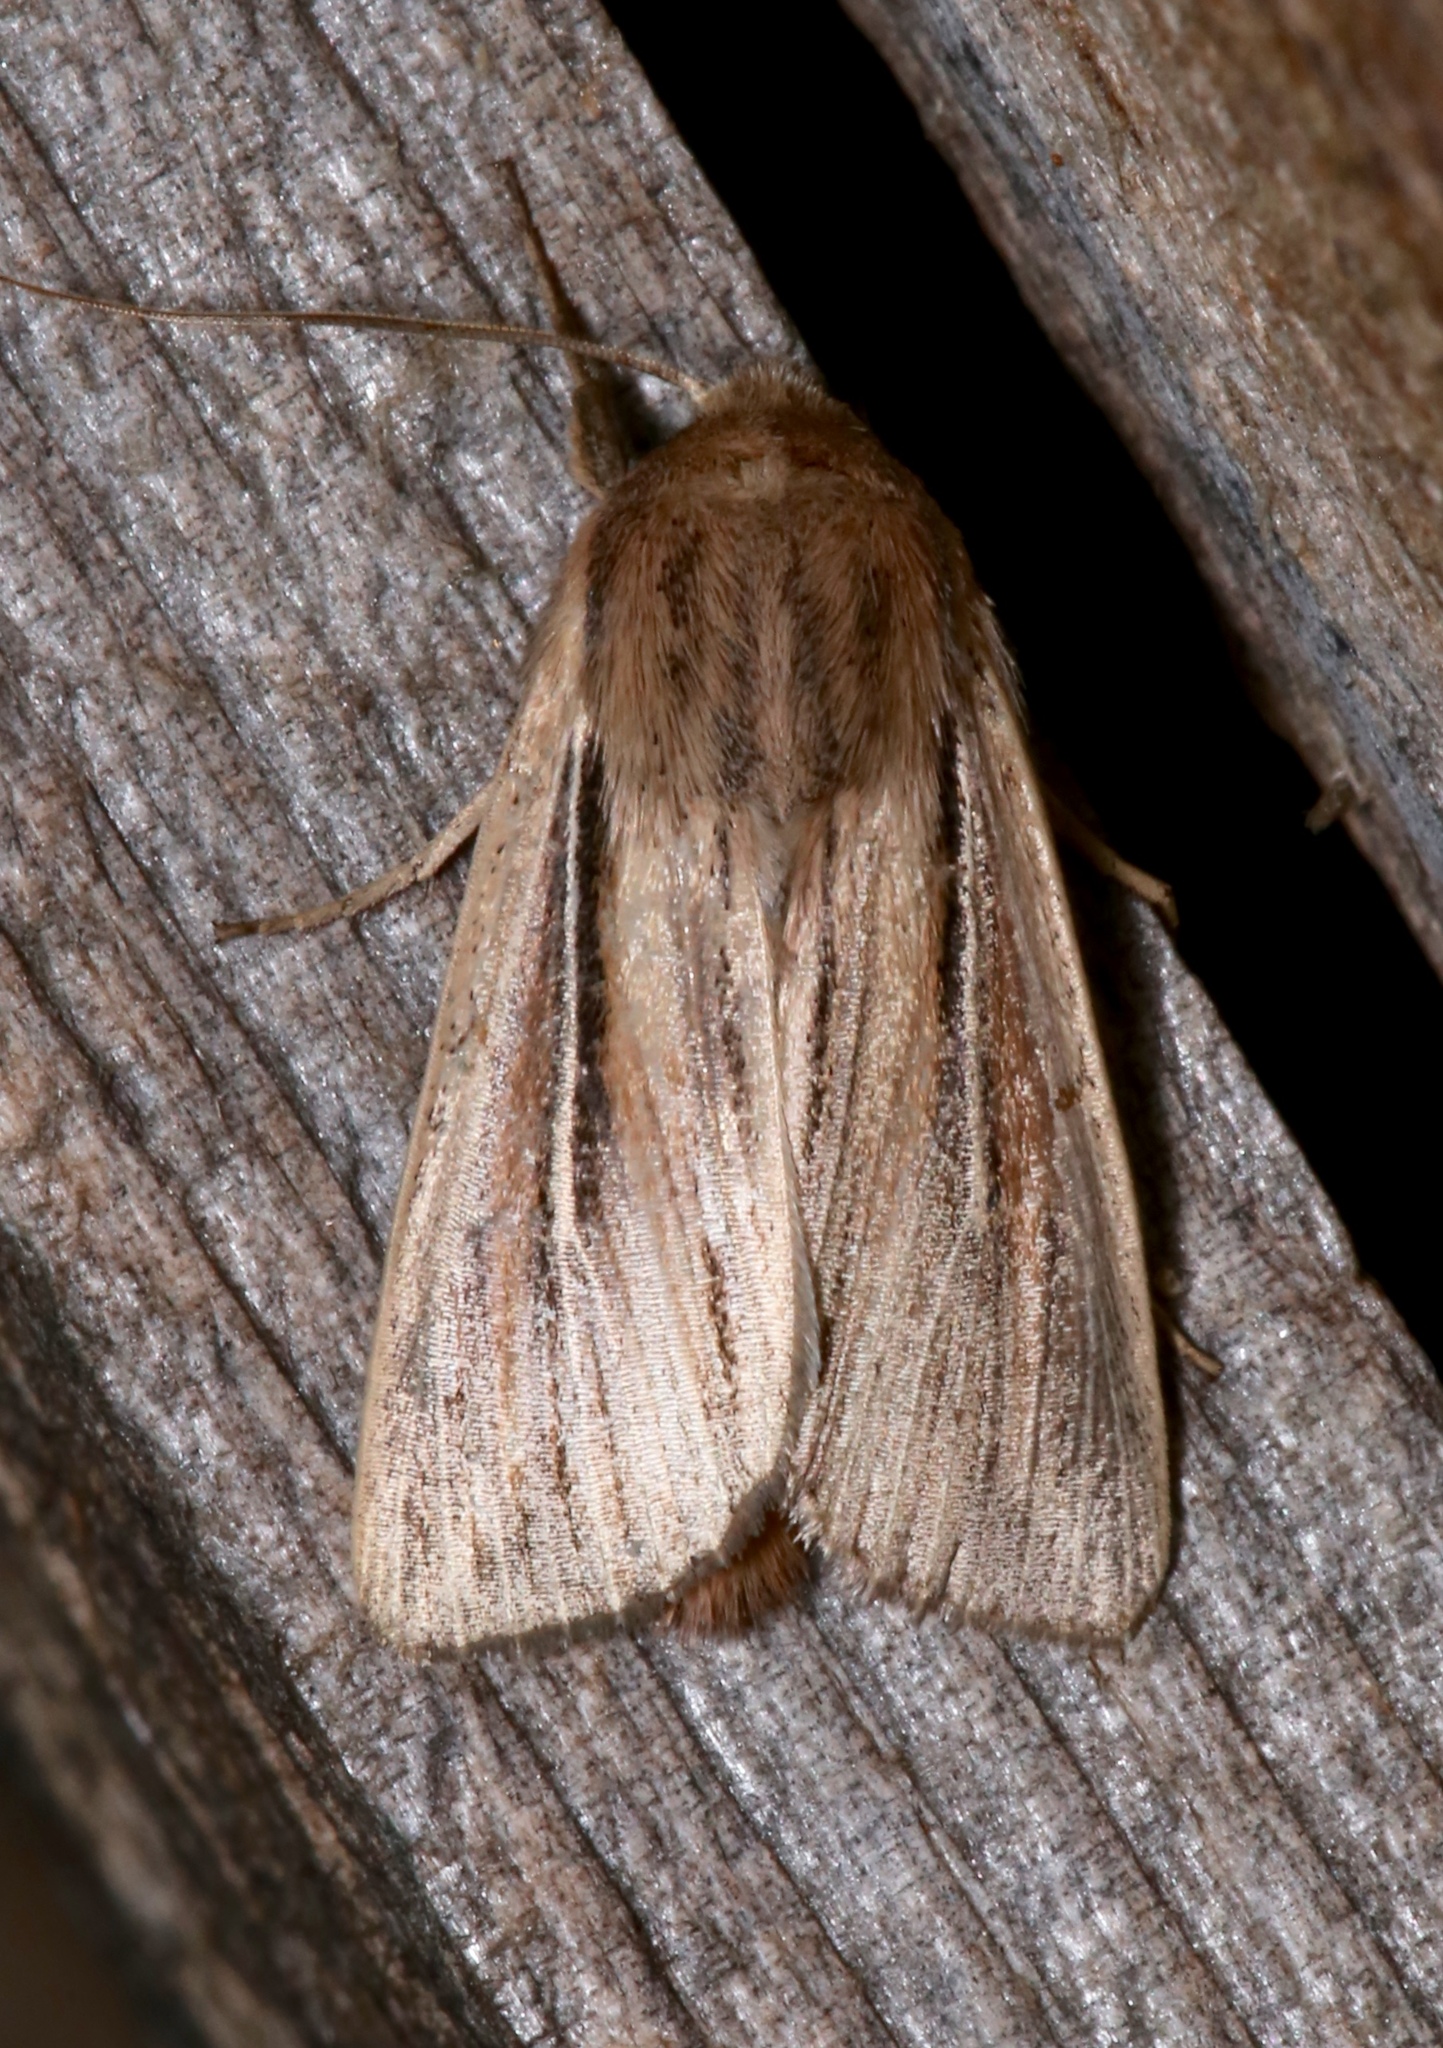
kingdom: Animalia
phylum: Arthropoda
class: Insecta
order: Lepidoptera
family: Noctuidae
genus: Leucania
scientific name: Leucania commoides
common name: Two-lined wainscot
